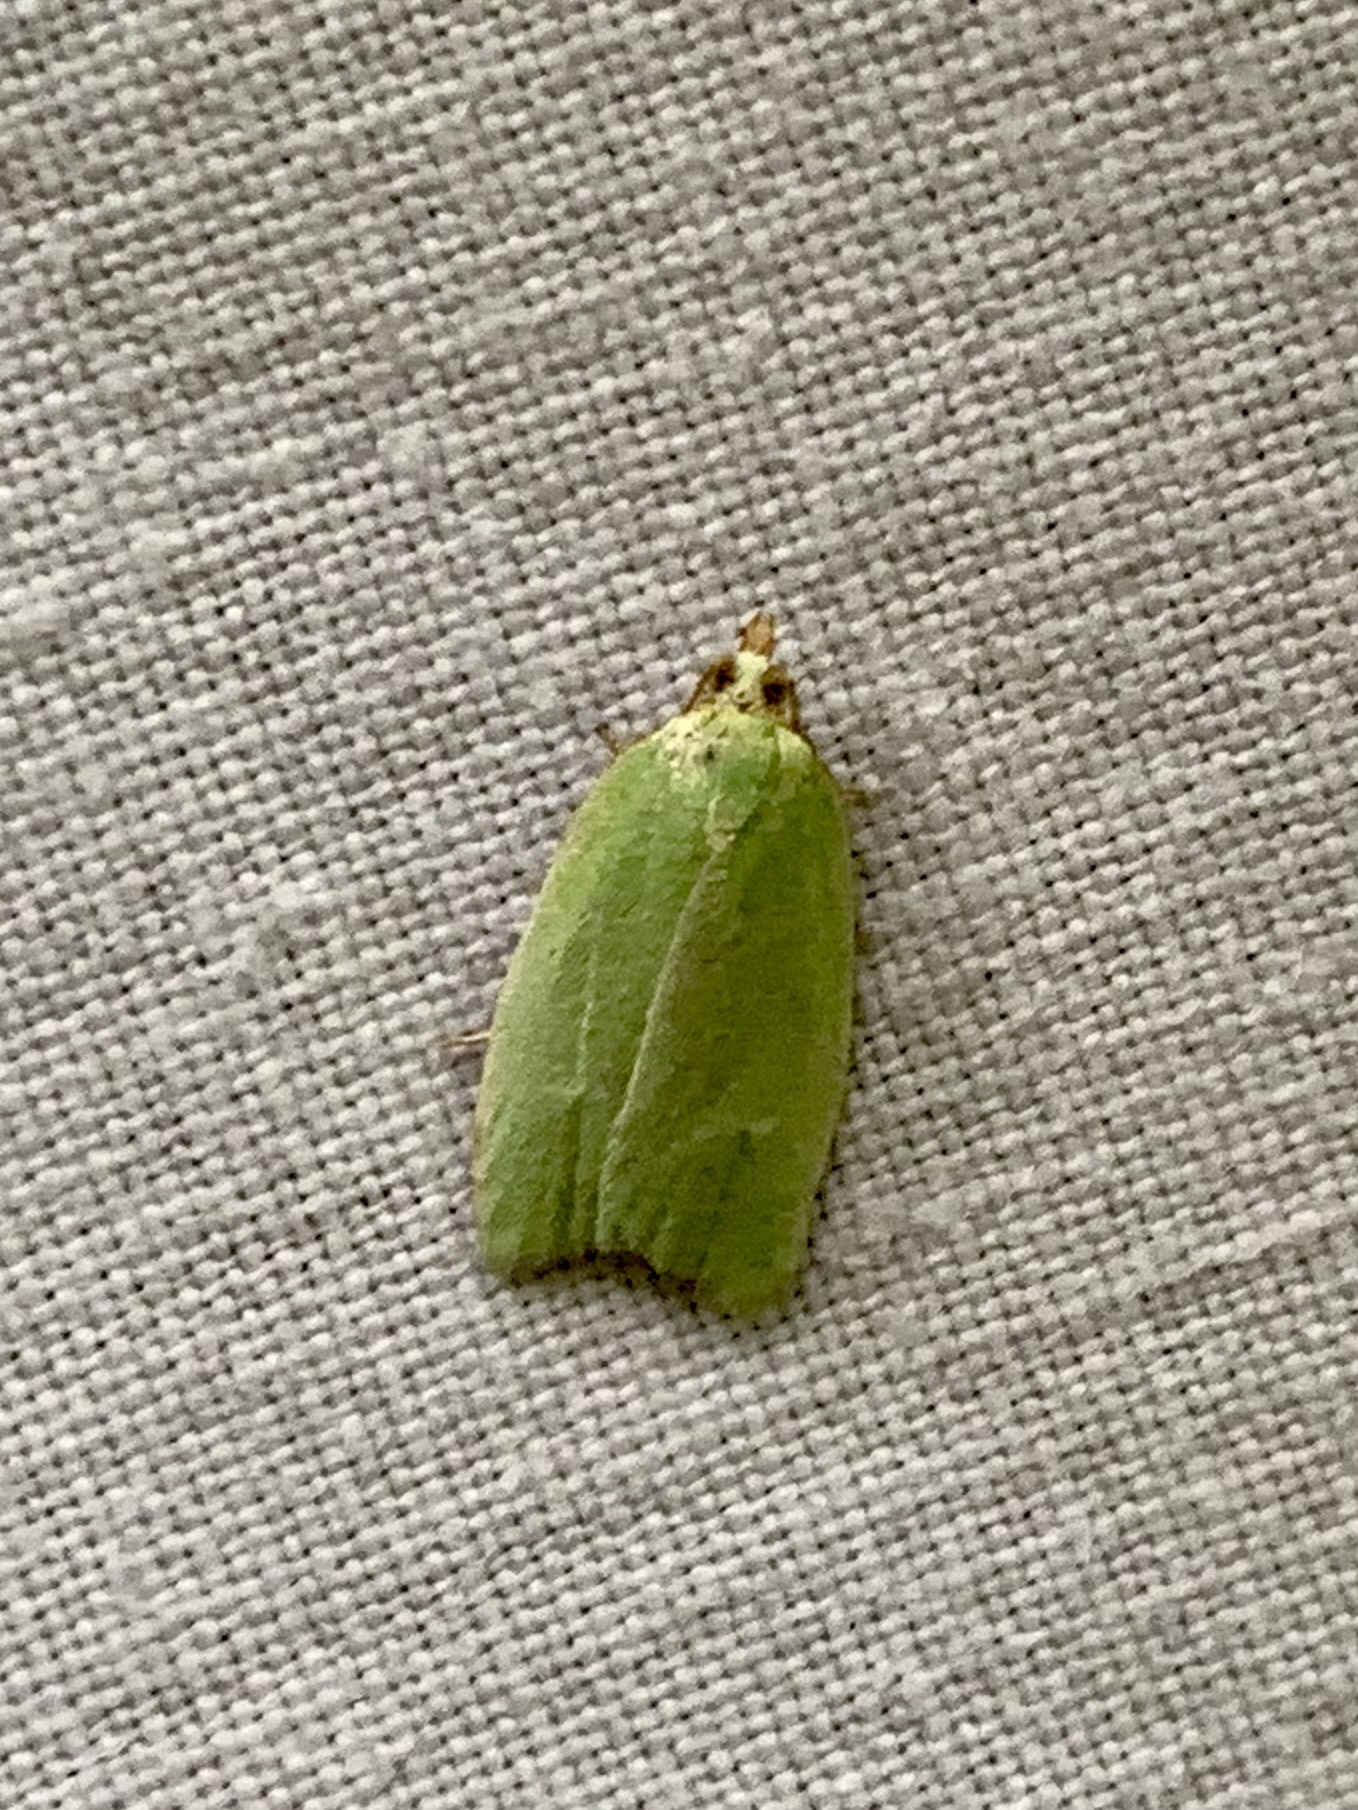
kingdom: Animalia
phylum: Arthropoda
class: Insecta
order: Lepidoptera
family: Tortricidae
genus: Tortrix
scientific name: Tortrix viridana
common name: Green oak tortrix
